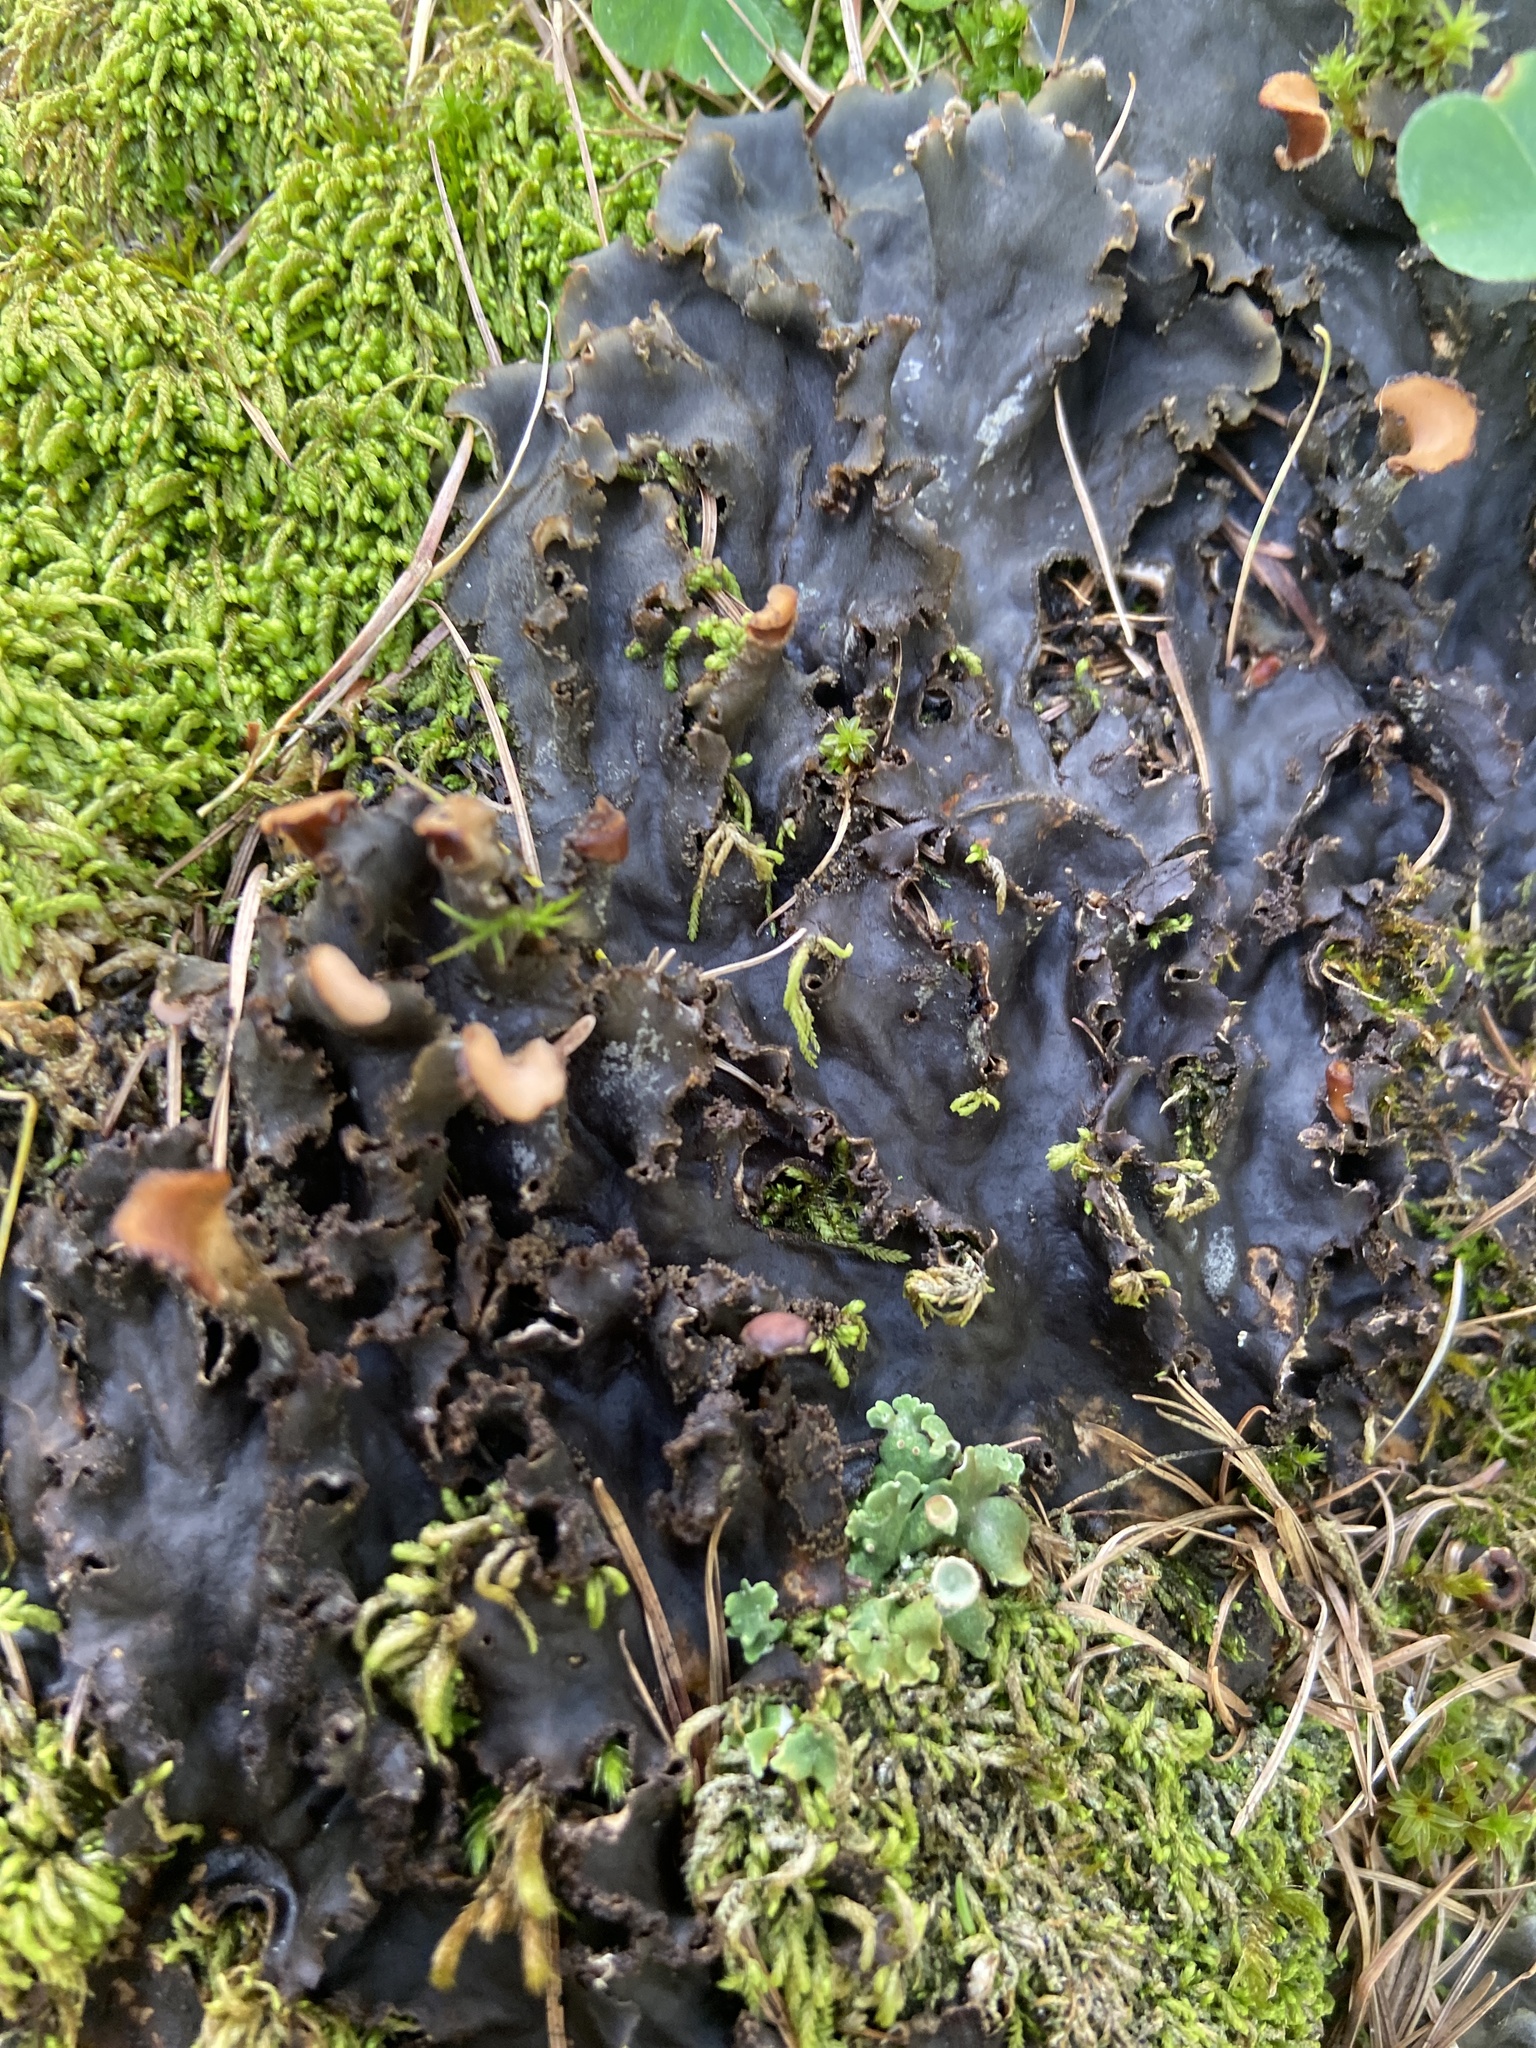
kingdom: Fungi
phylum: Ascomycota
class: Lecanoromycetes
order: Peltigerales
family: Peltigeraceae
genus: Peltigera
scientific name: Peltigera praetextata
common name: Scaly dog-lichen
